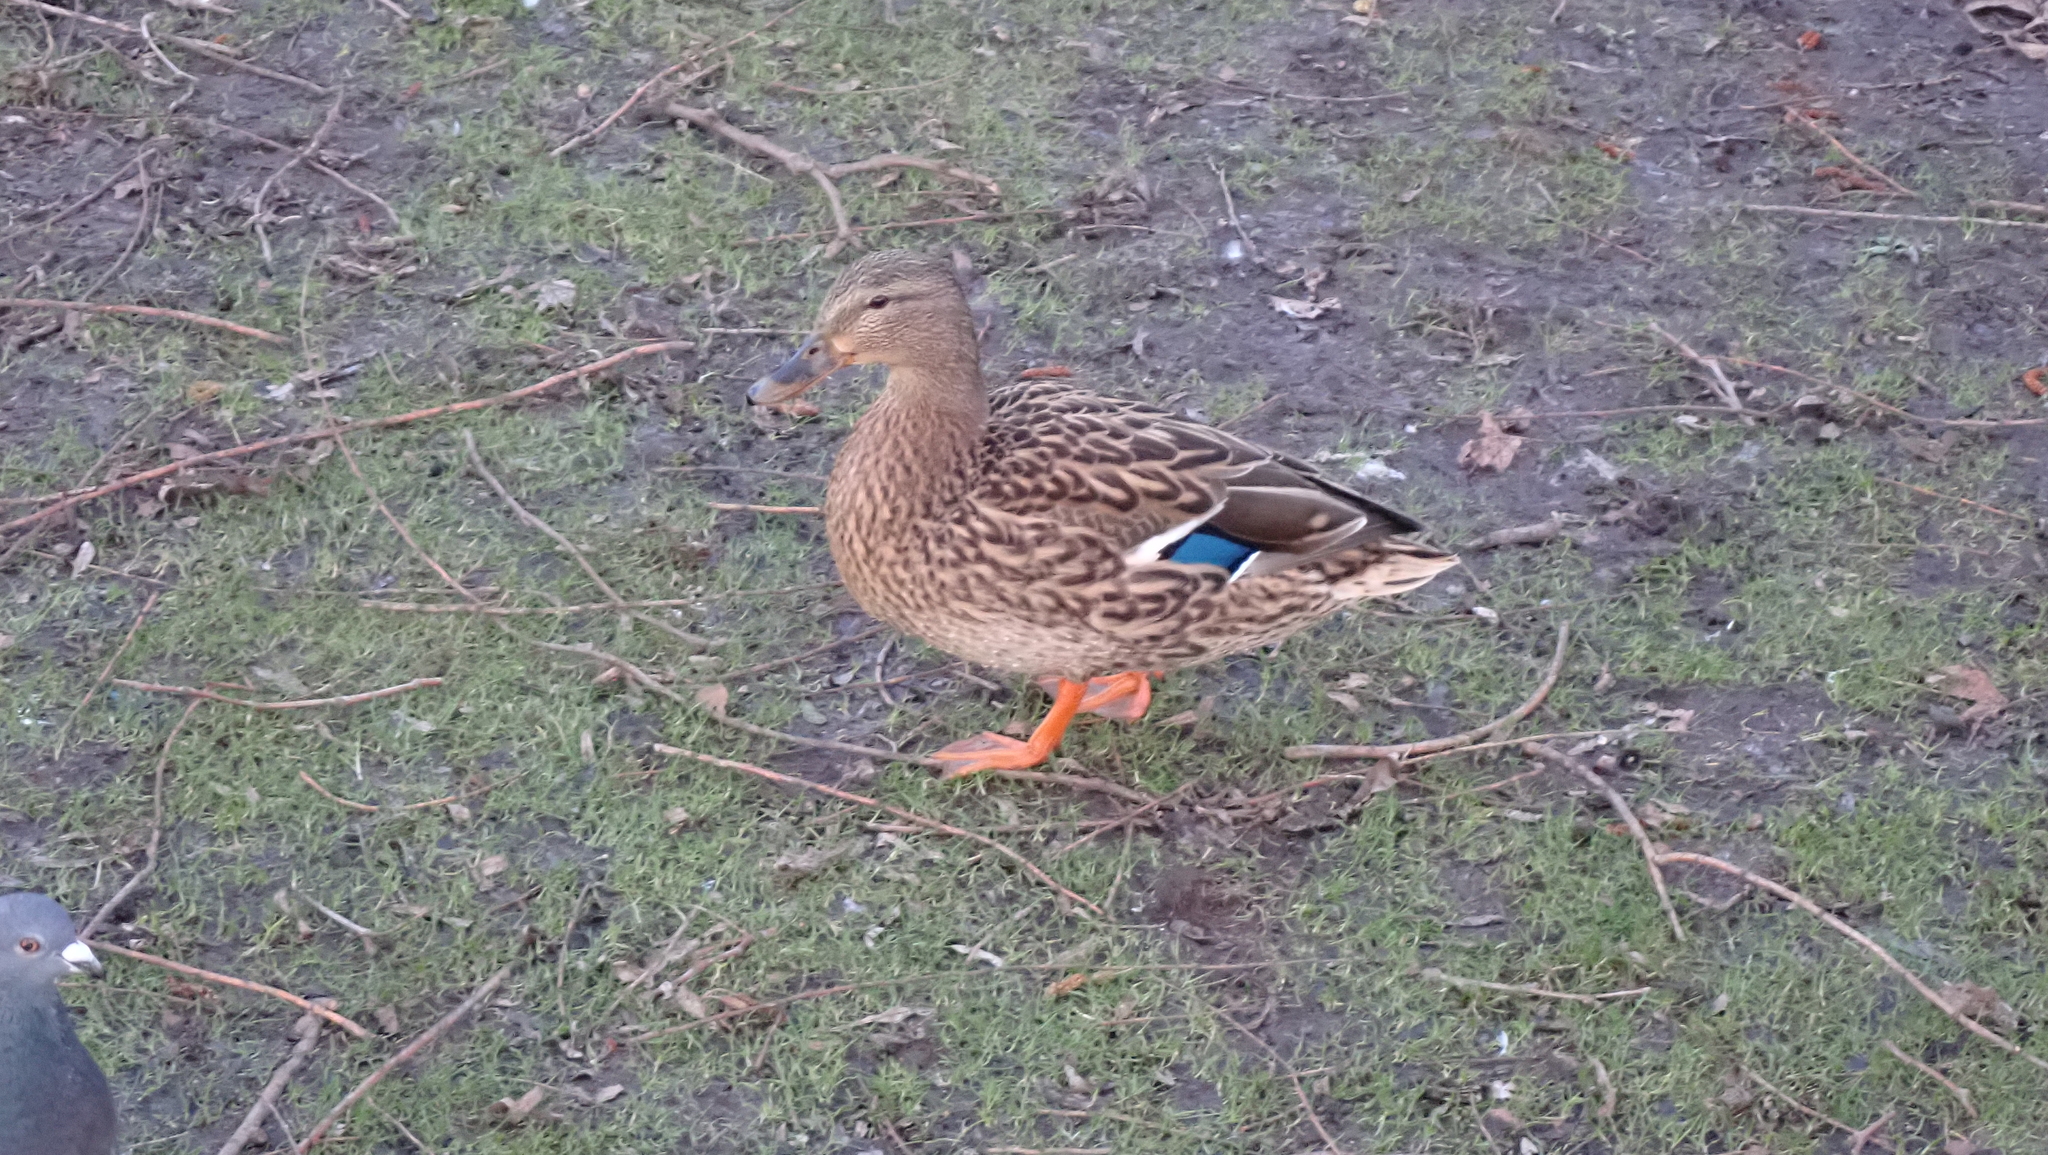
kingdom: Animalia
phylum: Chordata
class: Aves
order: Anseriformes
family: Anatidae
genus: Anas
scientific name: Anas platyrhynchos
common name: Mallard
